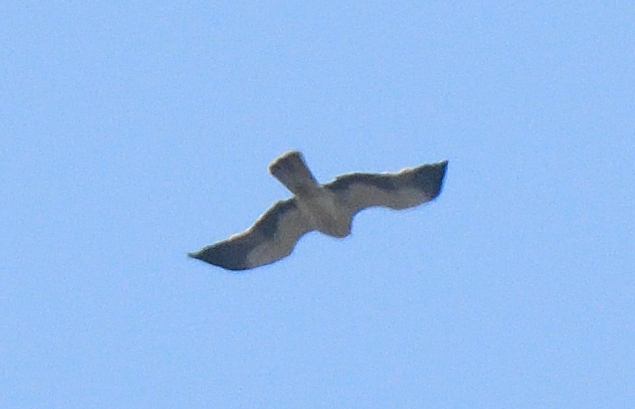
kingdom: Animalia
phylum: Chordata
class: Aves
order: Accipitriformes
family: Accipitridae
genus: Hieraaetus
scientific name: Hieraaetus pennatus
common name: Booted eagle
